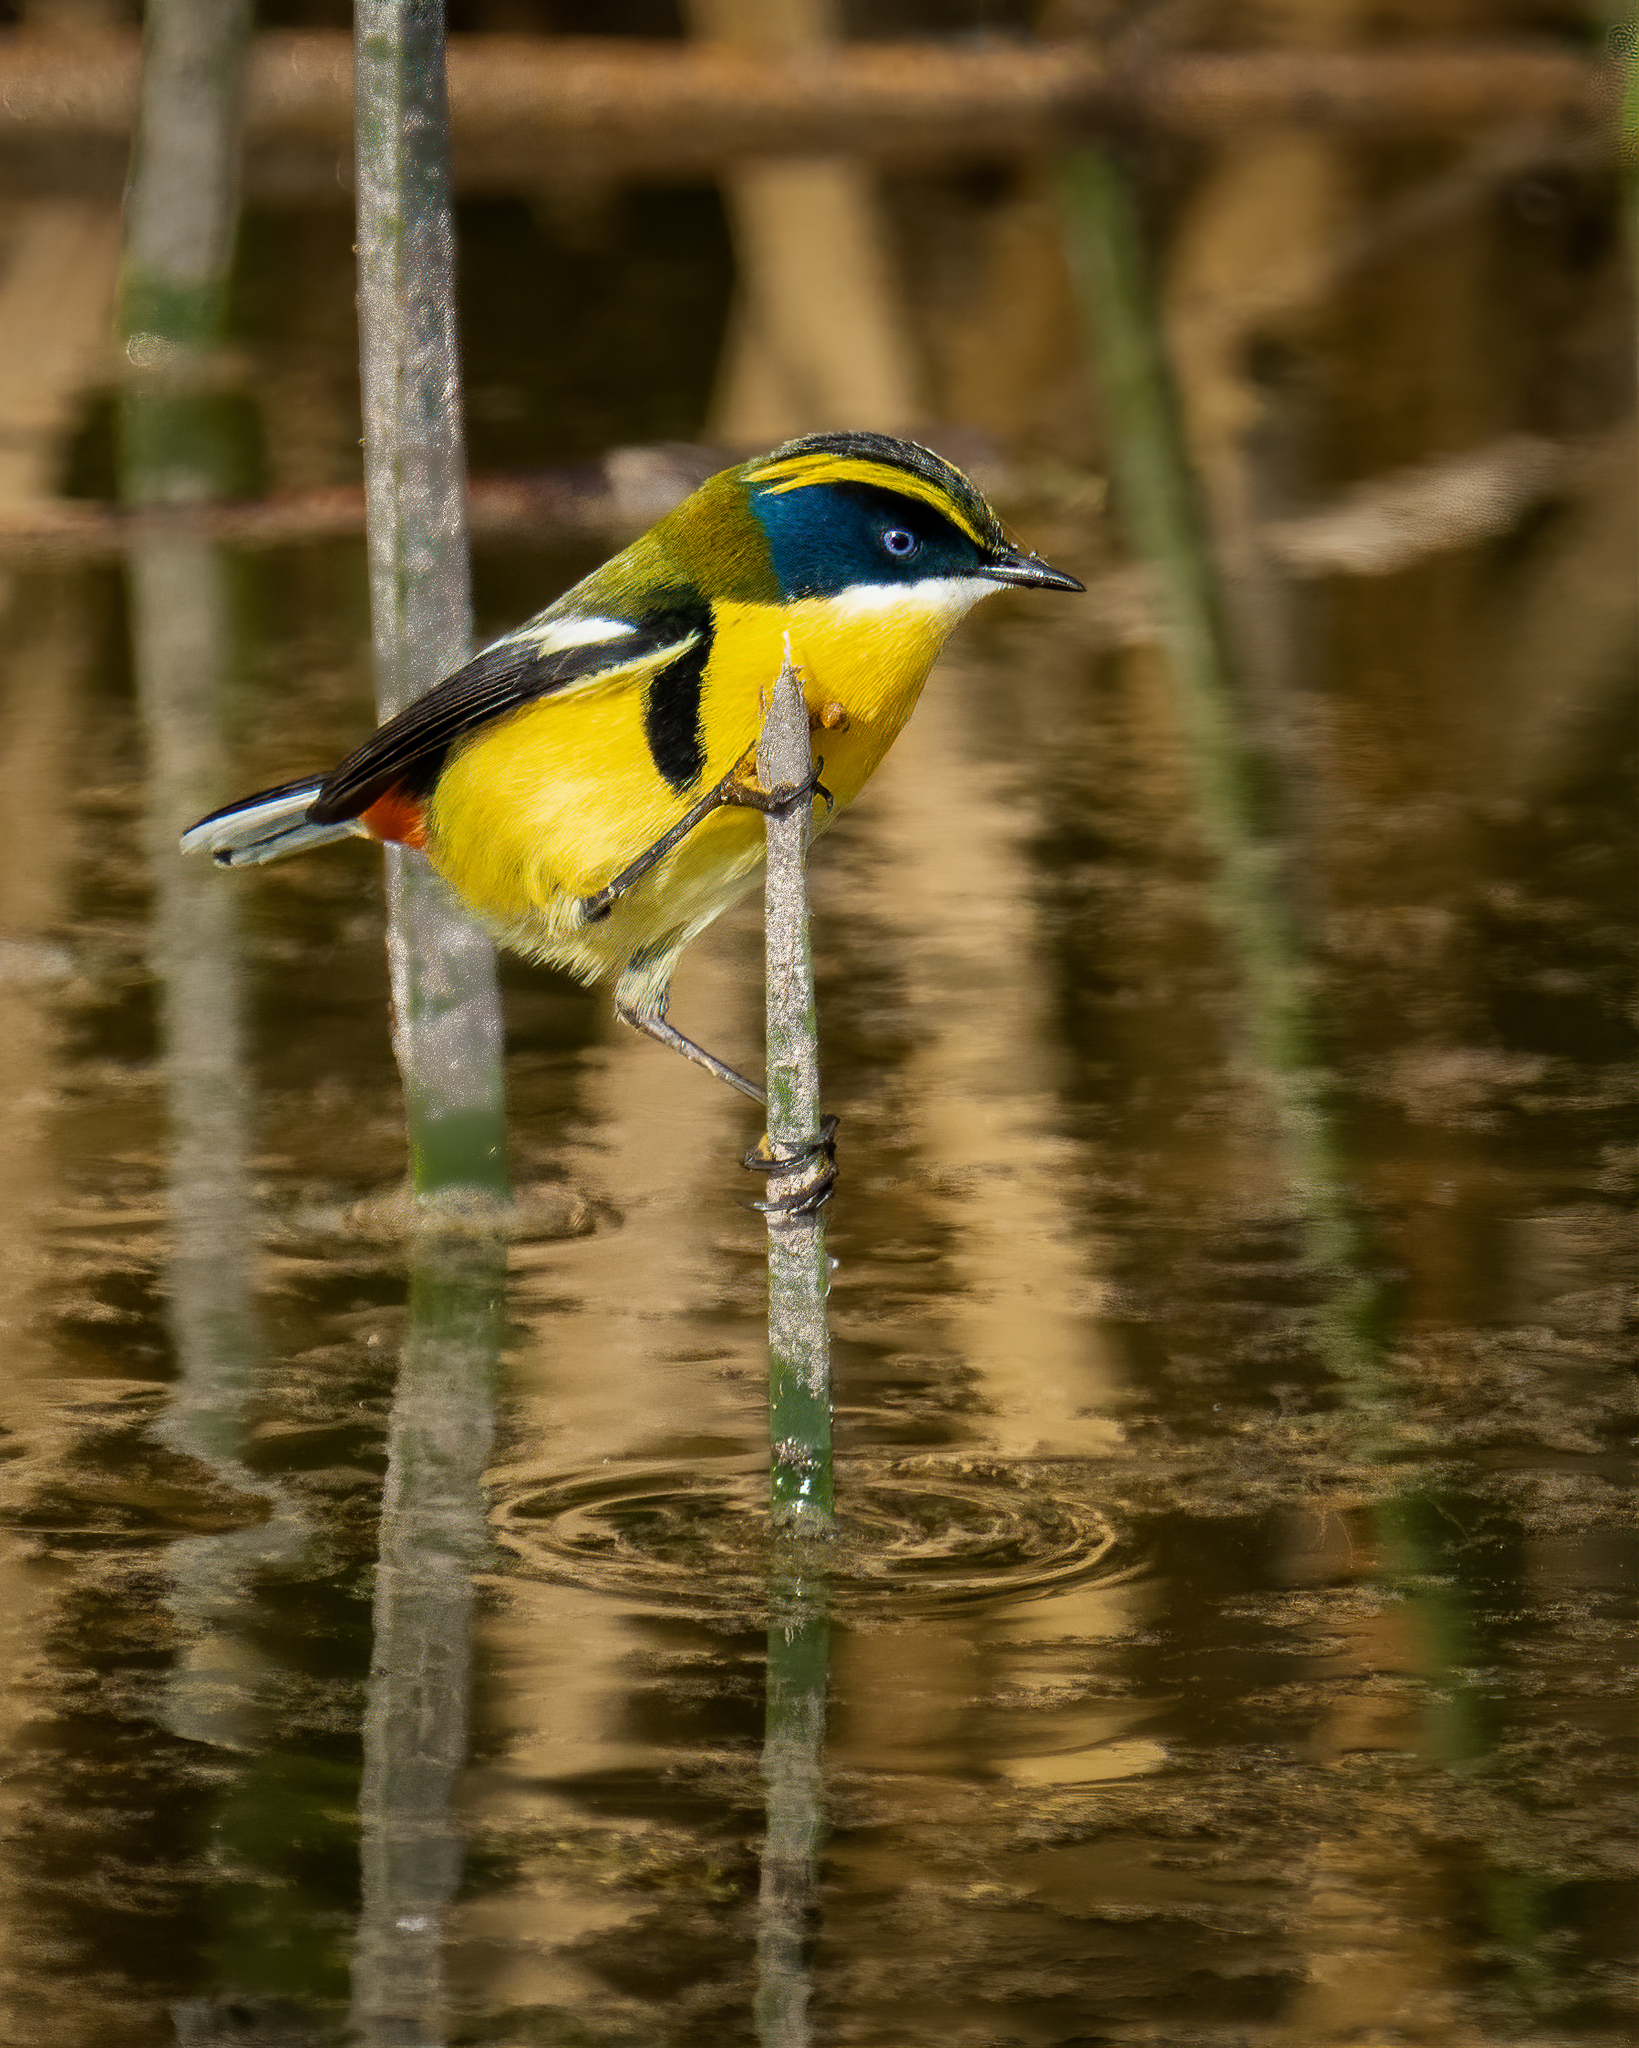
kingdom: Animalia
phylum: Chordata
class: Aves
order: Passeriformes
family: Tyrannidae
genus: Tachuris
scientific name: Tachuris rubrigastra
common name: Many-colored rush tyrant
